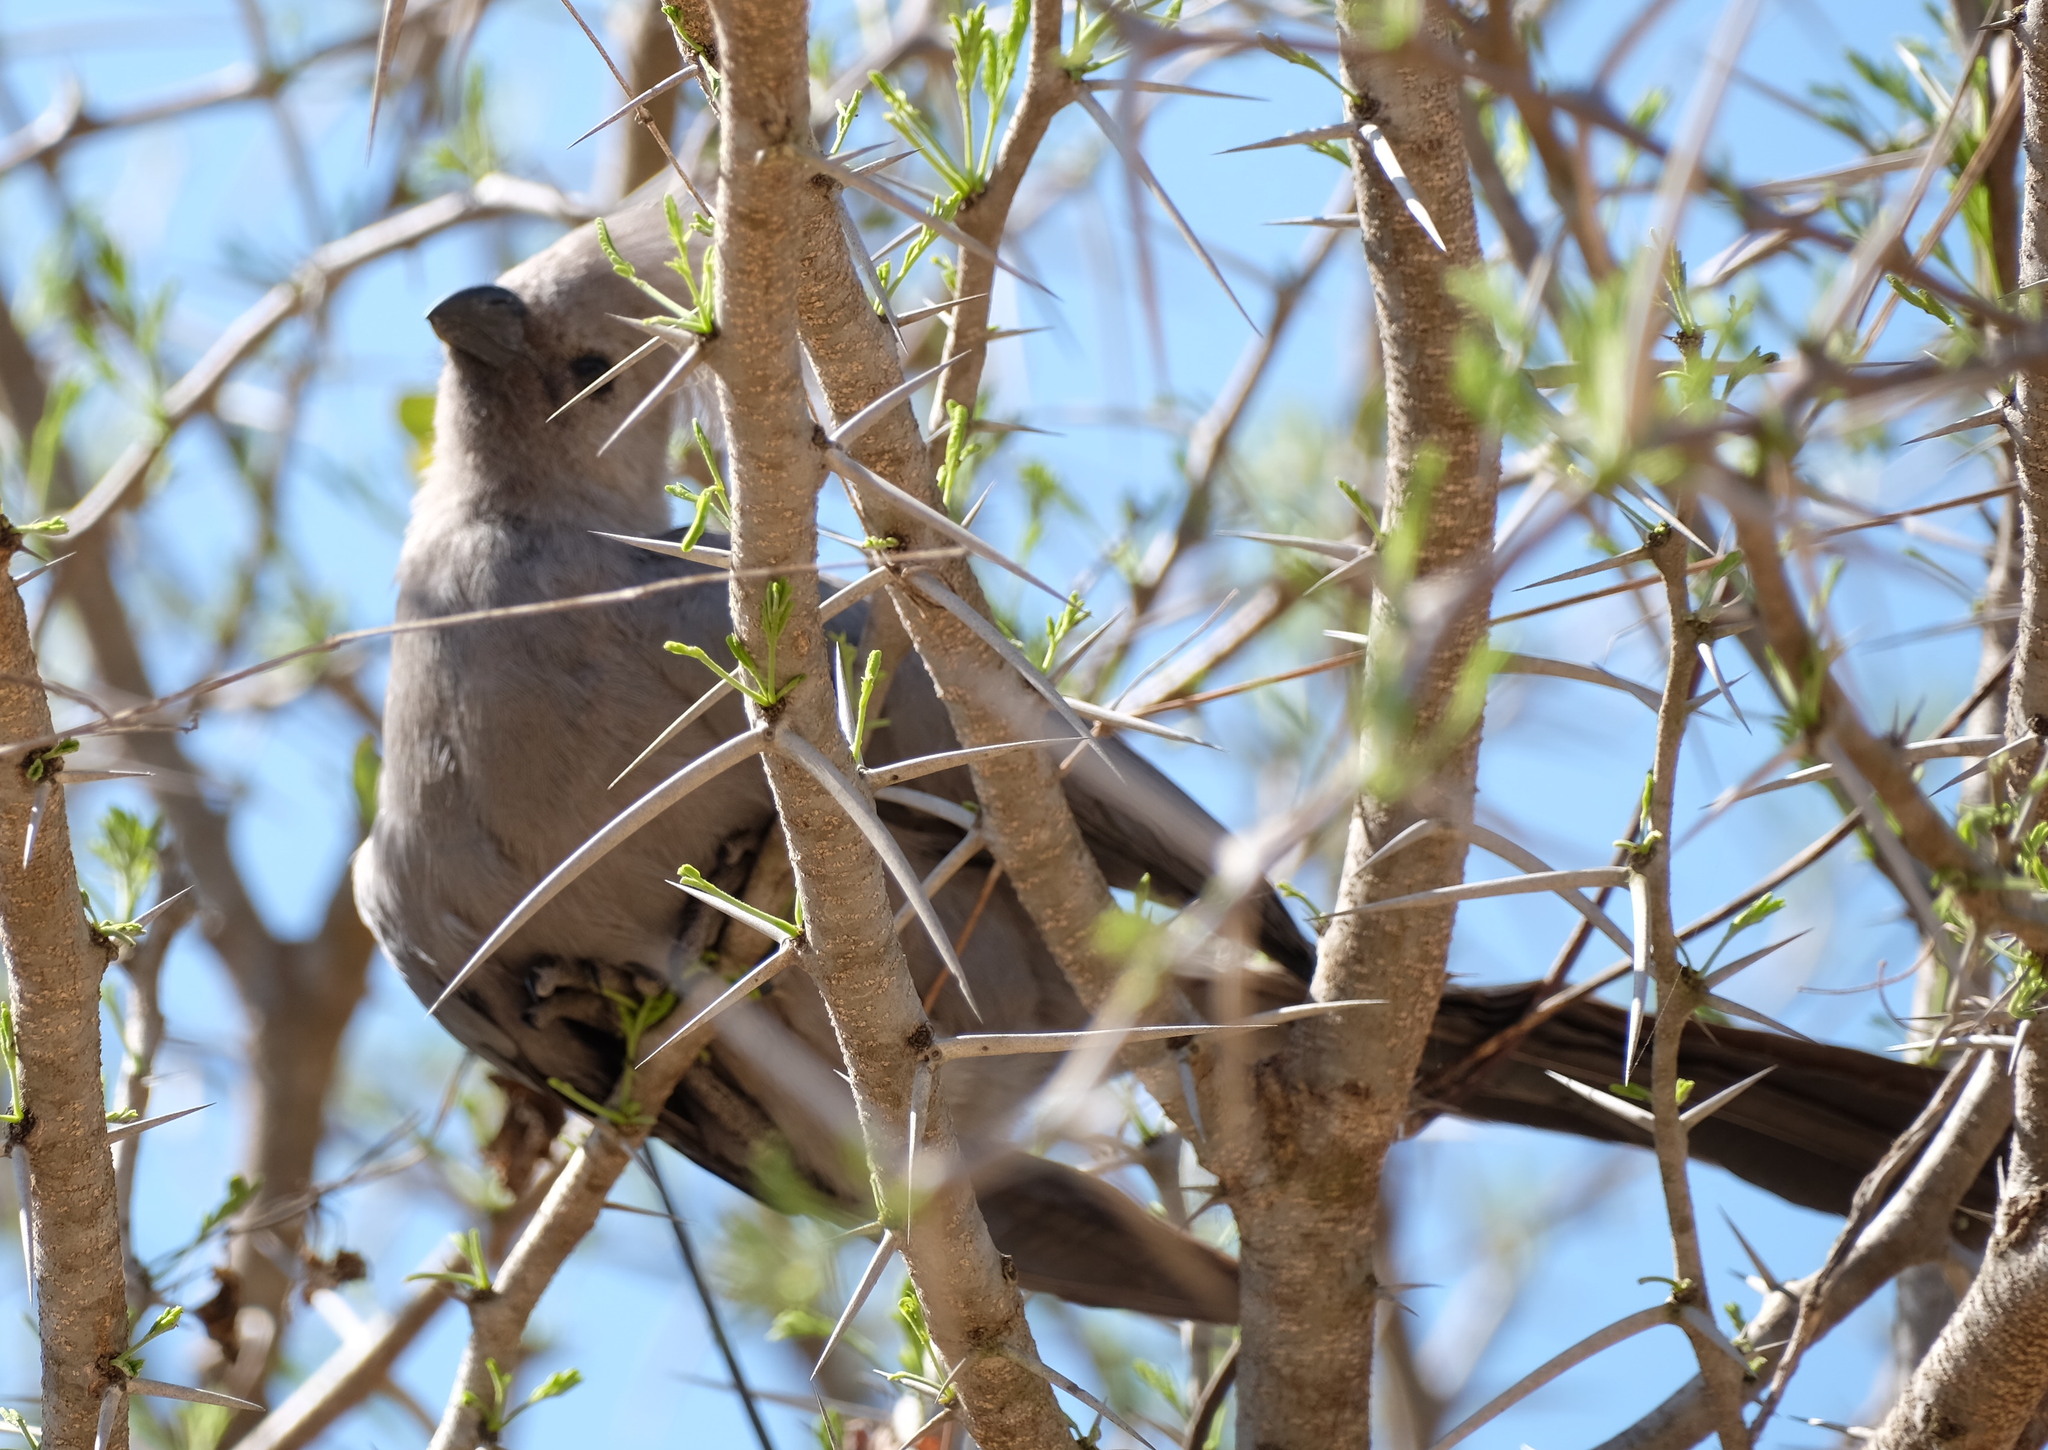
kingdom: Animalia
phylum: Chordata
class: Aves
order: Musophagiformes
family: Musophagidae
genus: Corythaixoides
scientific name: Corythaixoides concolor
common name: Grey go-away-bird
